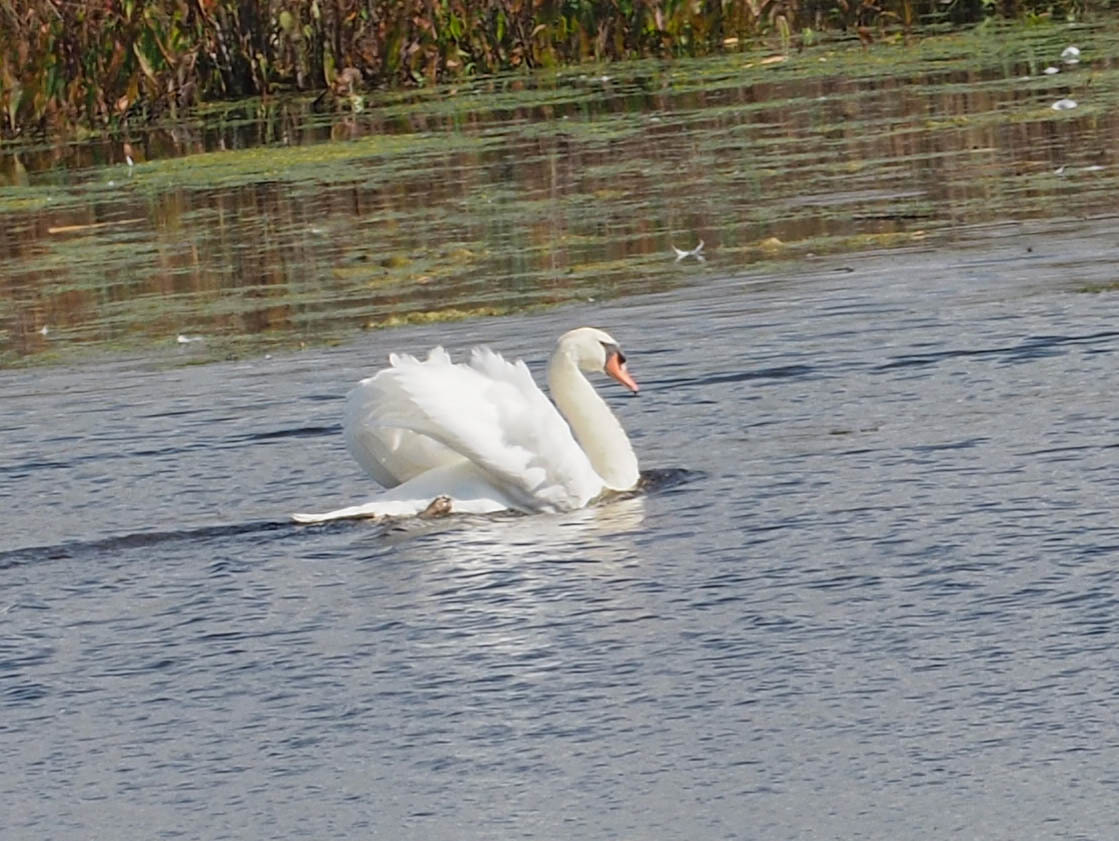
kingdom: Animalia
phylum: Chordata
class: Aves
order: Anseriformes
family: Anatidae
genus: Cygnus
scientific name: Cygnus olor
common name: Mute swan
